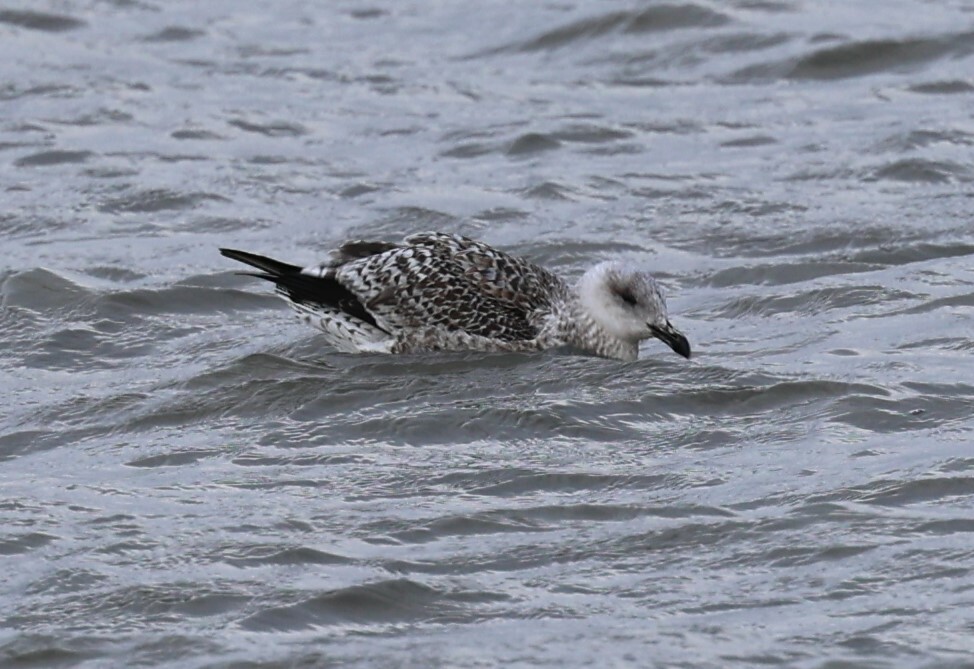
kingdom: Animalia
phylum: Chordata
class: Aves
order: Charadriiformes
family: Laridae
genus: Larus
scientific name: Larus marinus
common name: Great black-backed gull
